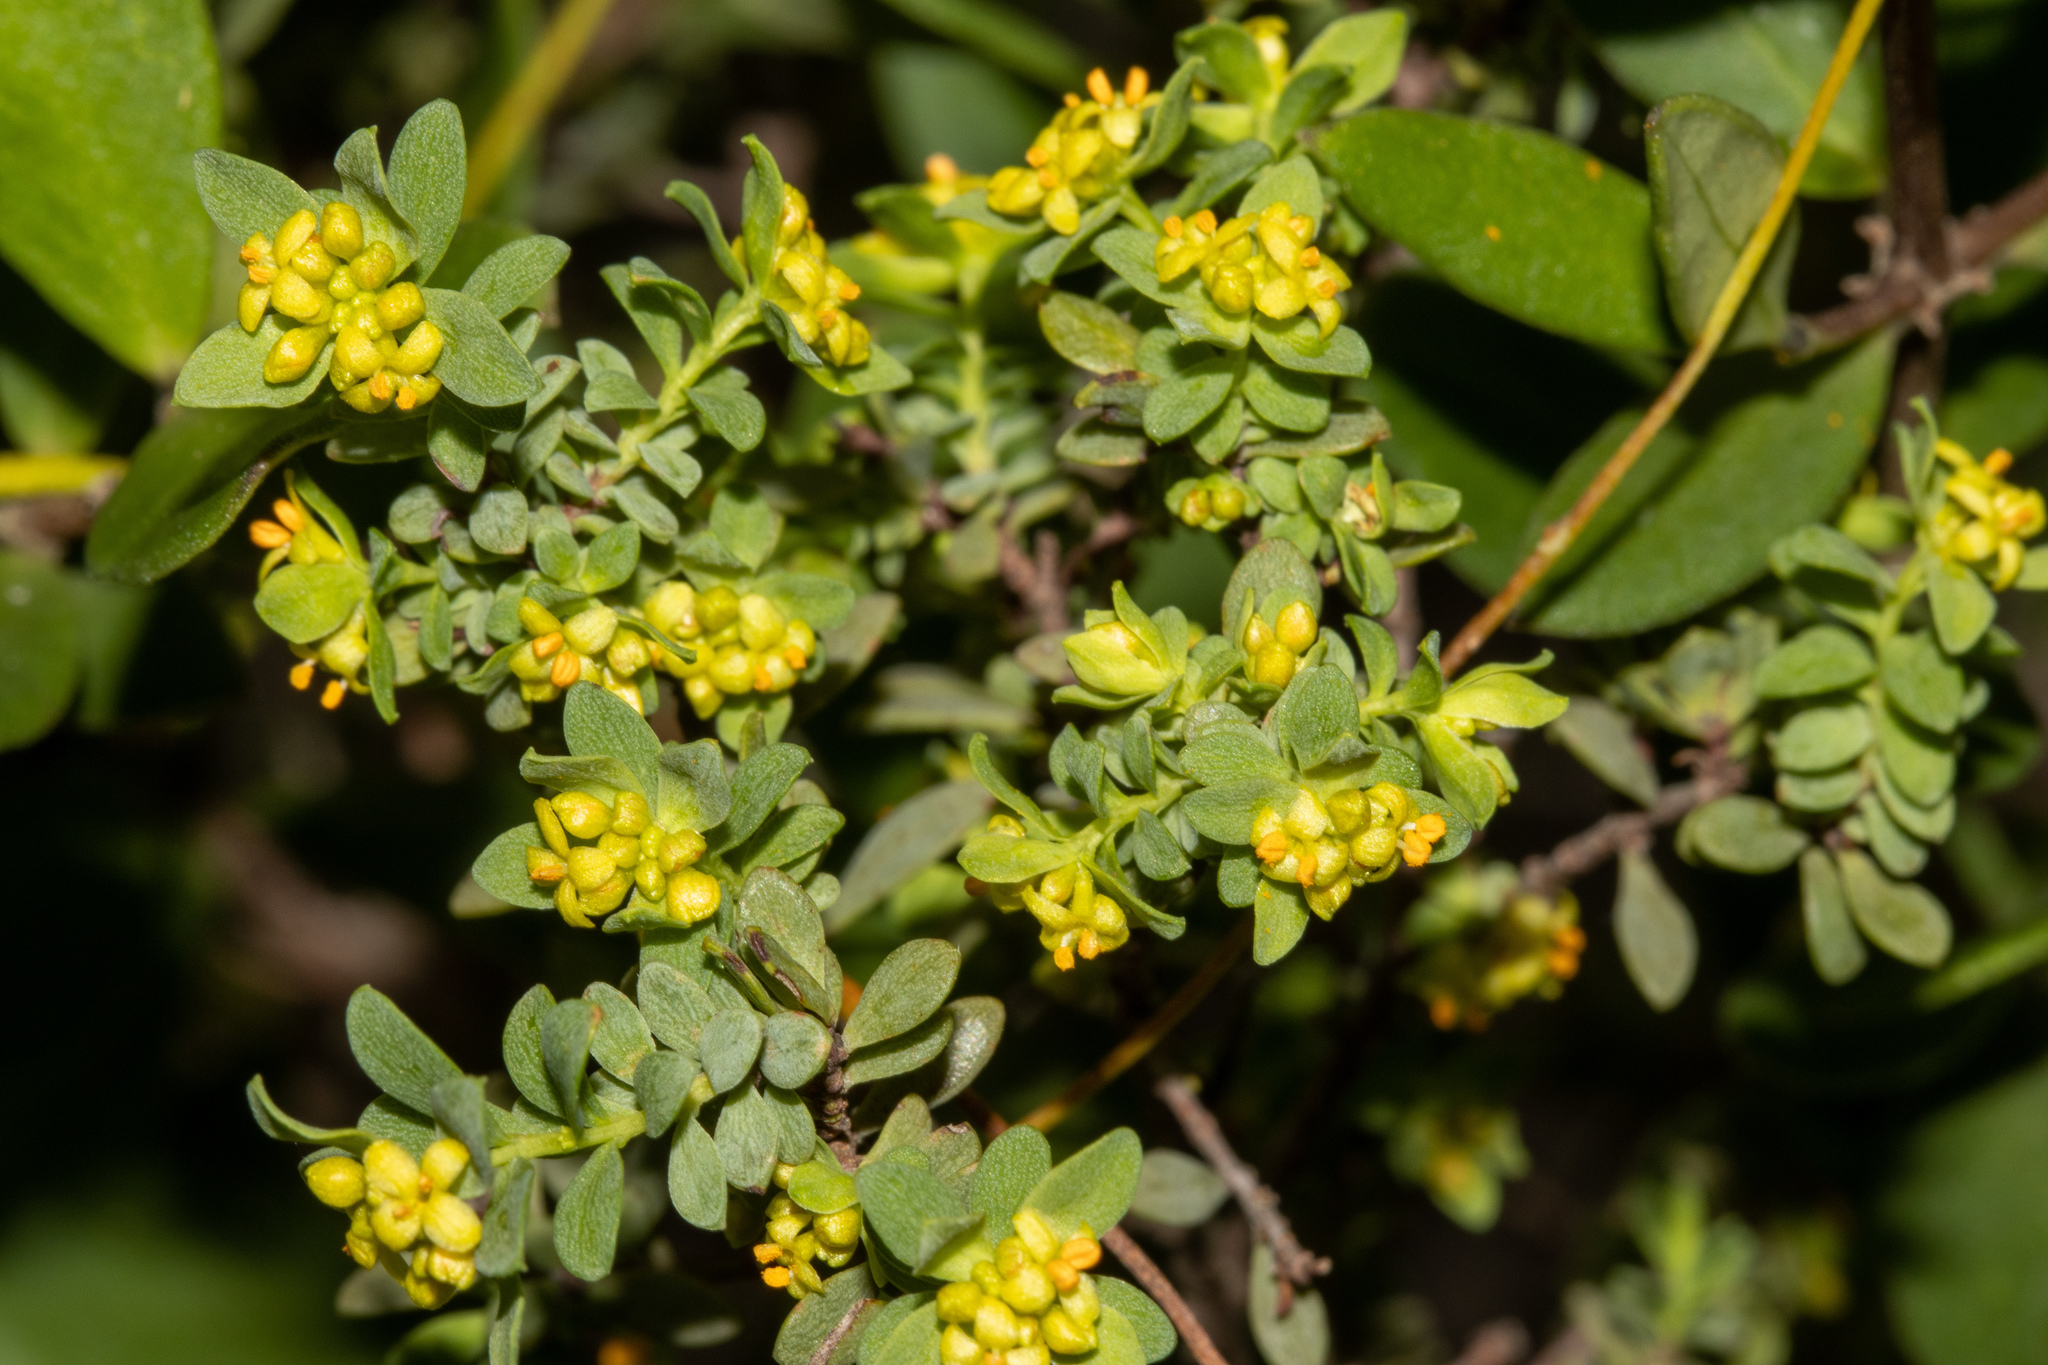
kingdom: Plantae
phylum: Tracheophyta
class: Magnoliopsida
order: Malvales
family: Thymelaeaceae
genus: Pimelea
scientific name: Pimelea serpyllifolia
